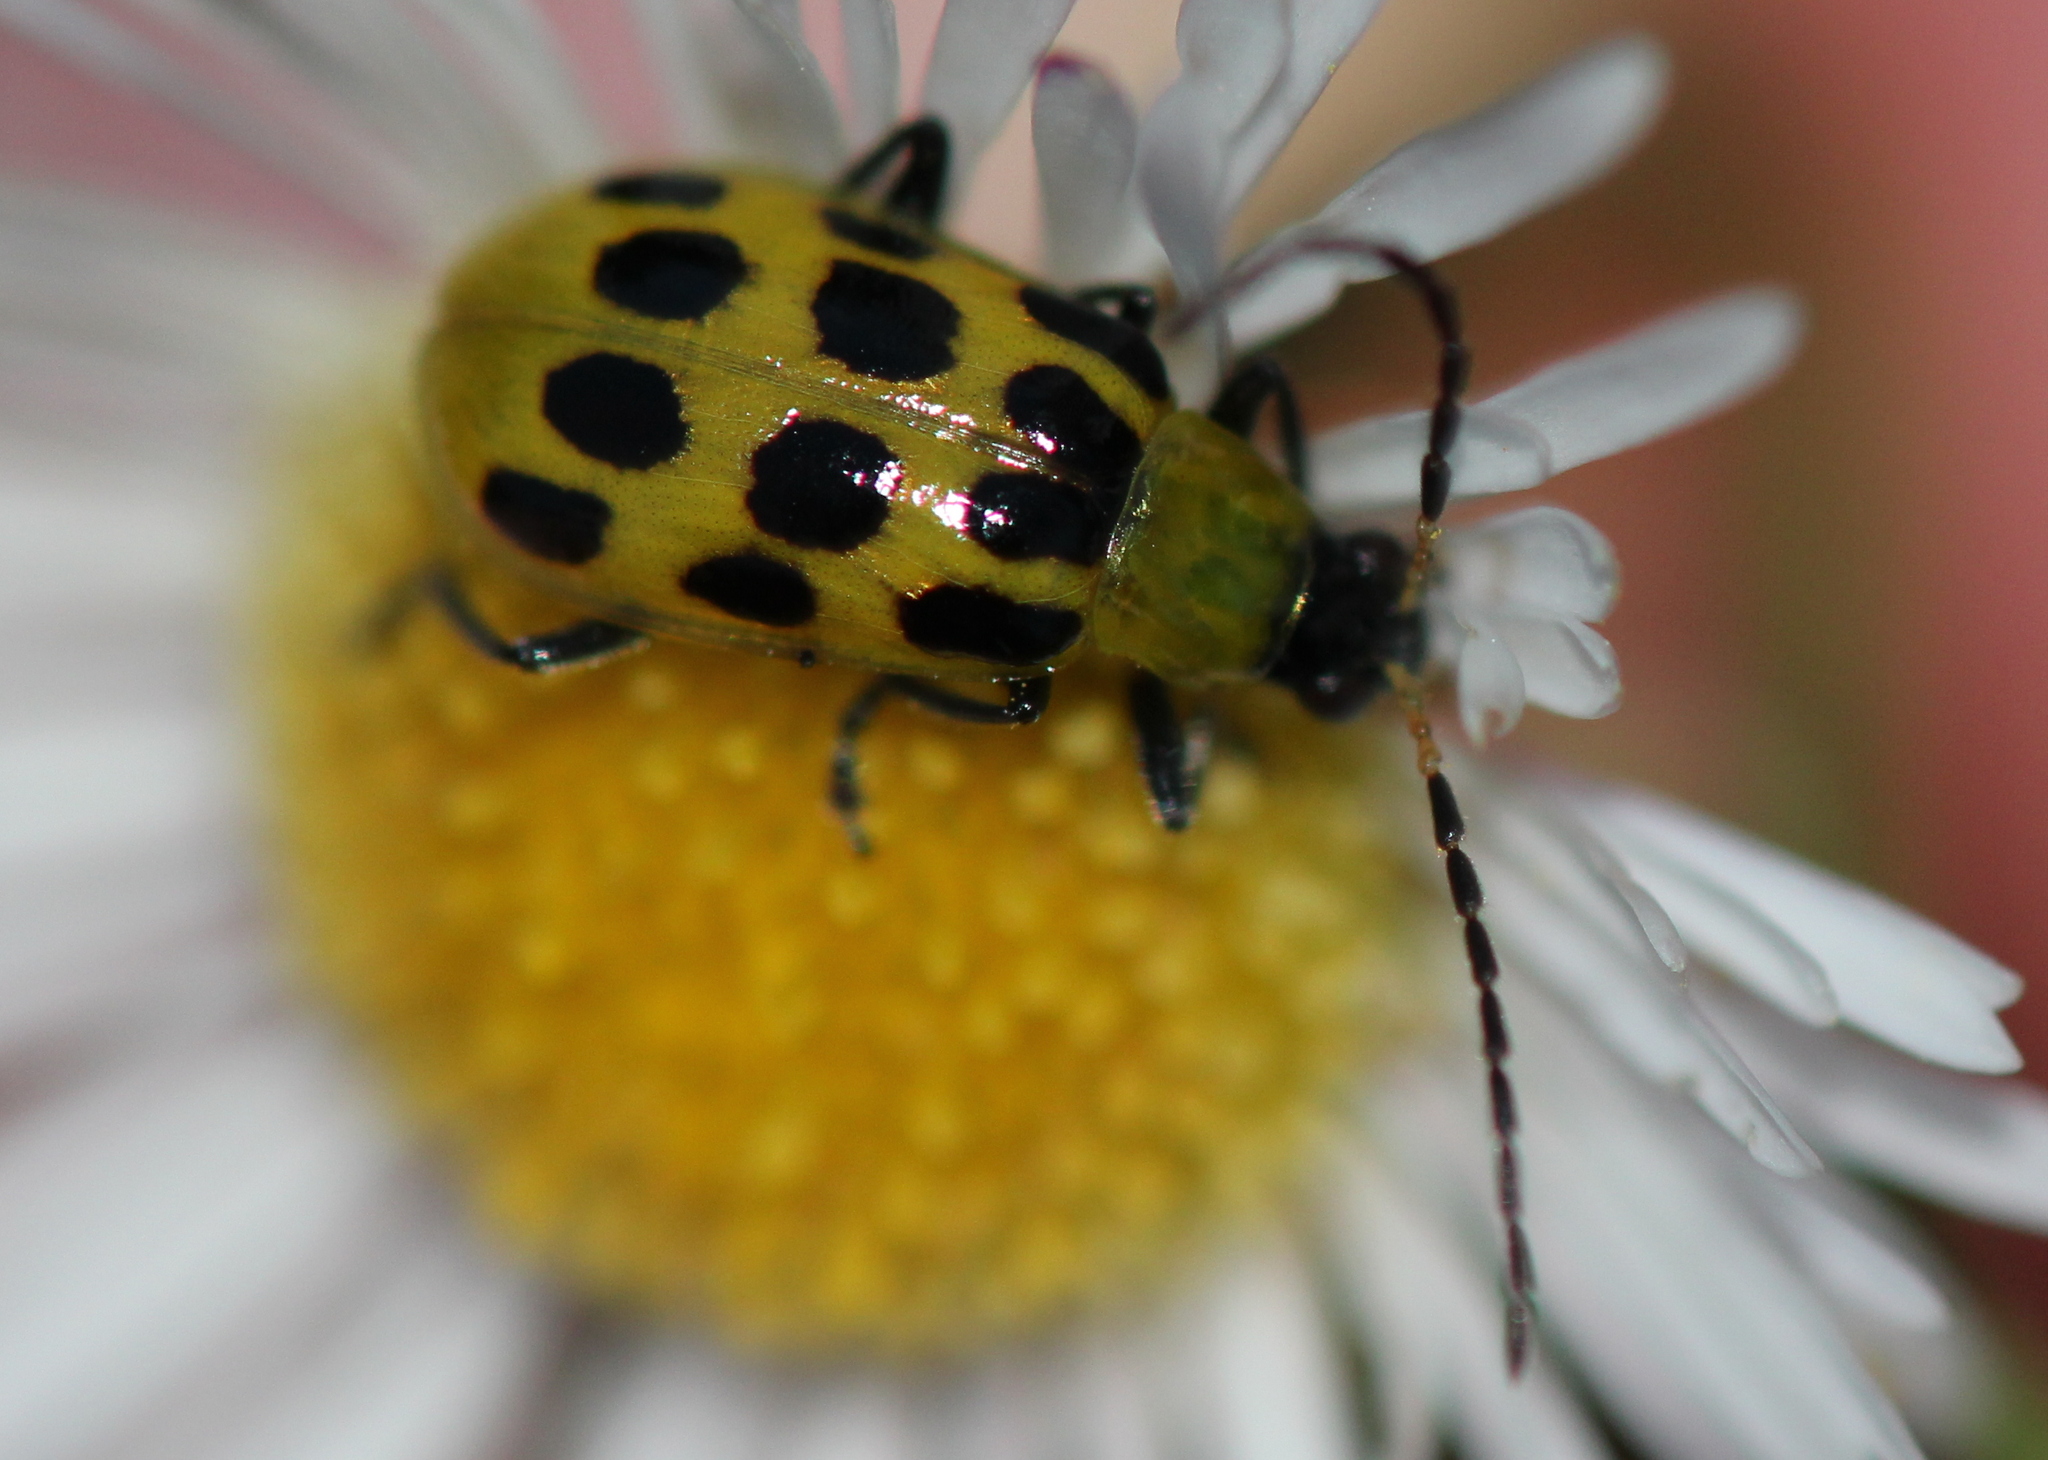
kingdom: Animalia
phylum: Arthropoda
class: Insecta
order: Coleoptera
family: Chrysomelidae
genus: Diabrotica
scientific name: Diabrotica undecimpunctata
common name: Spotted cucumber beetle
